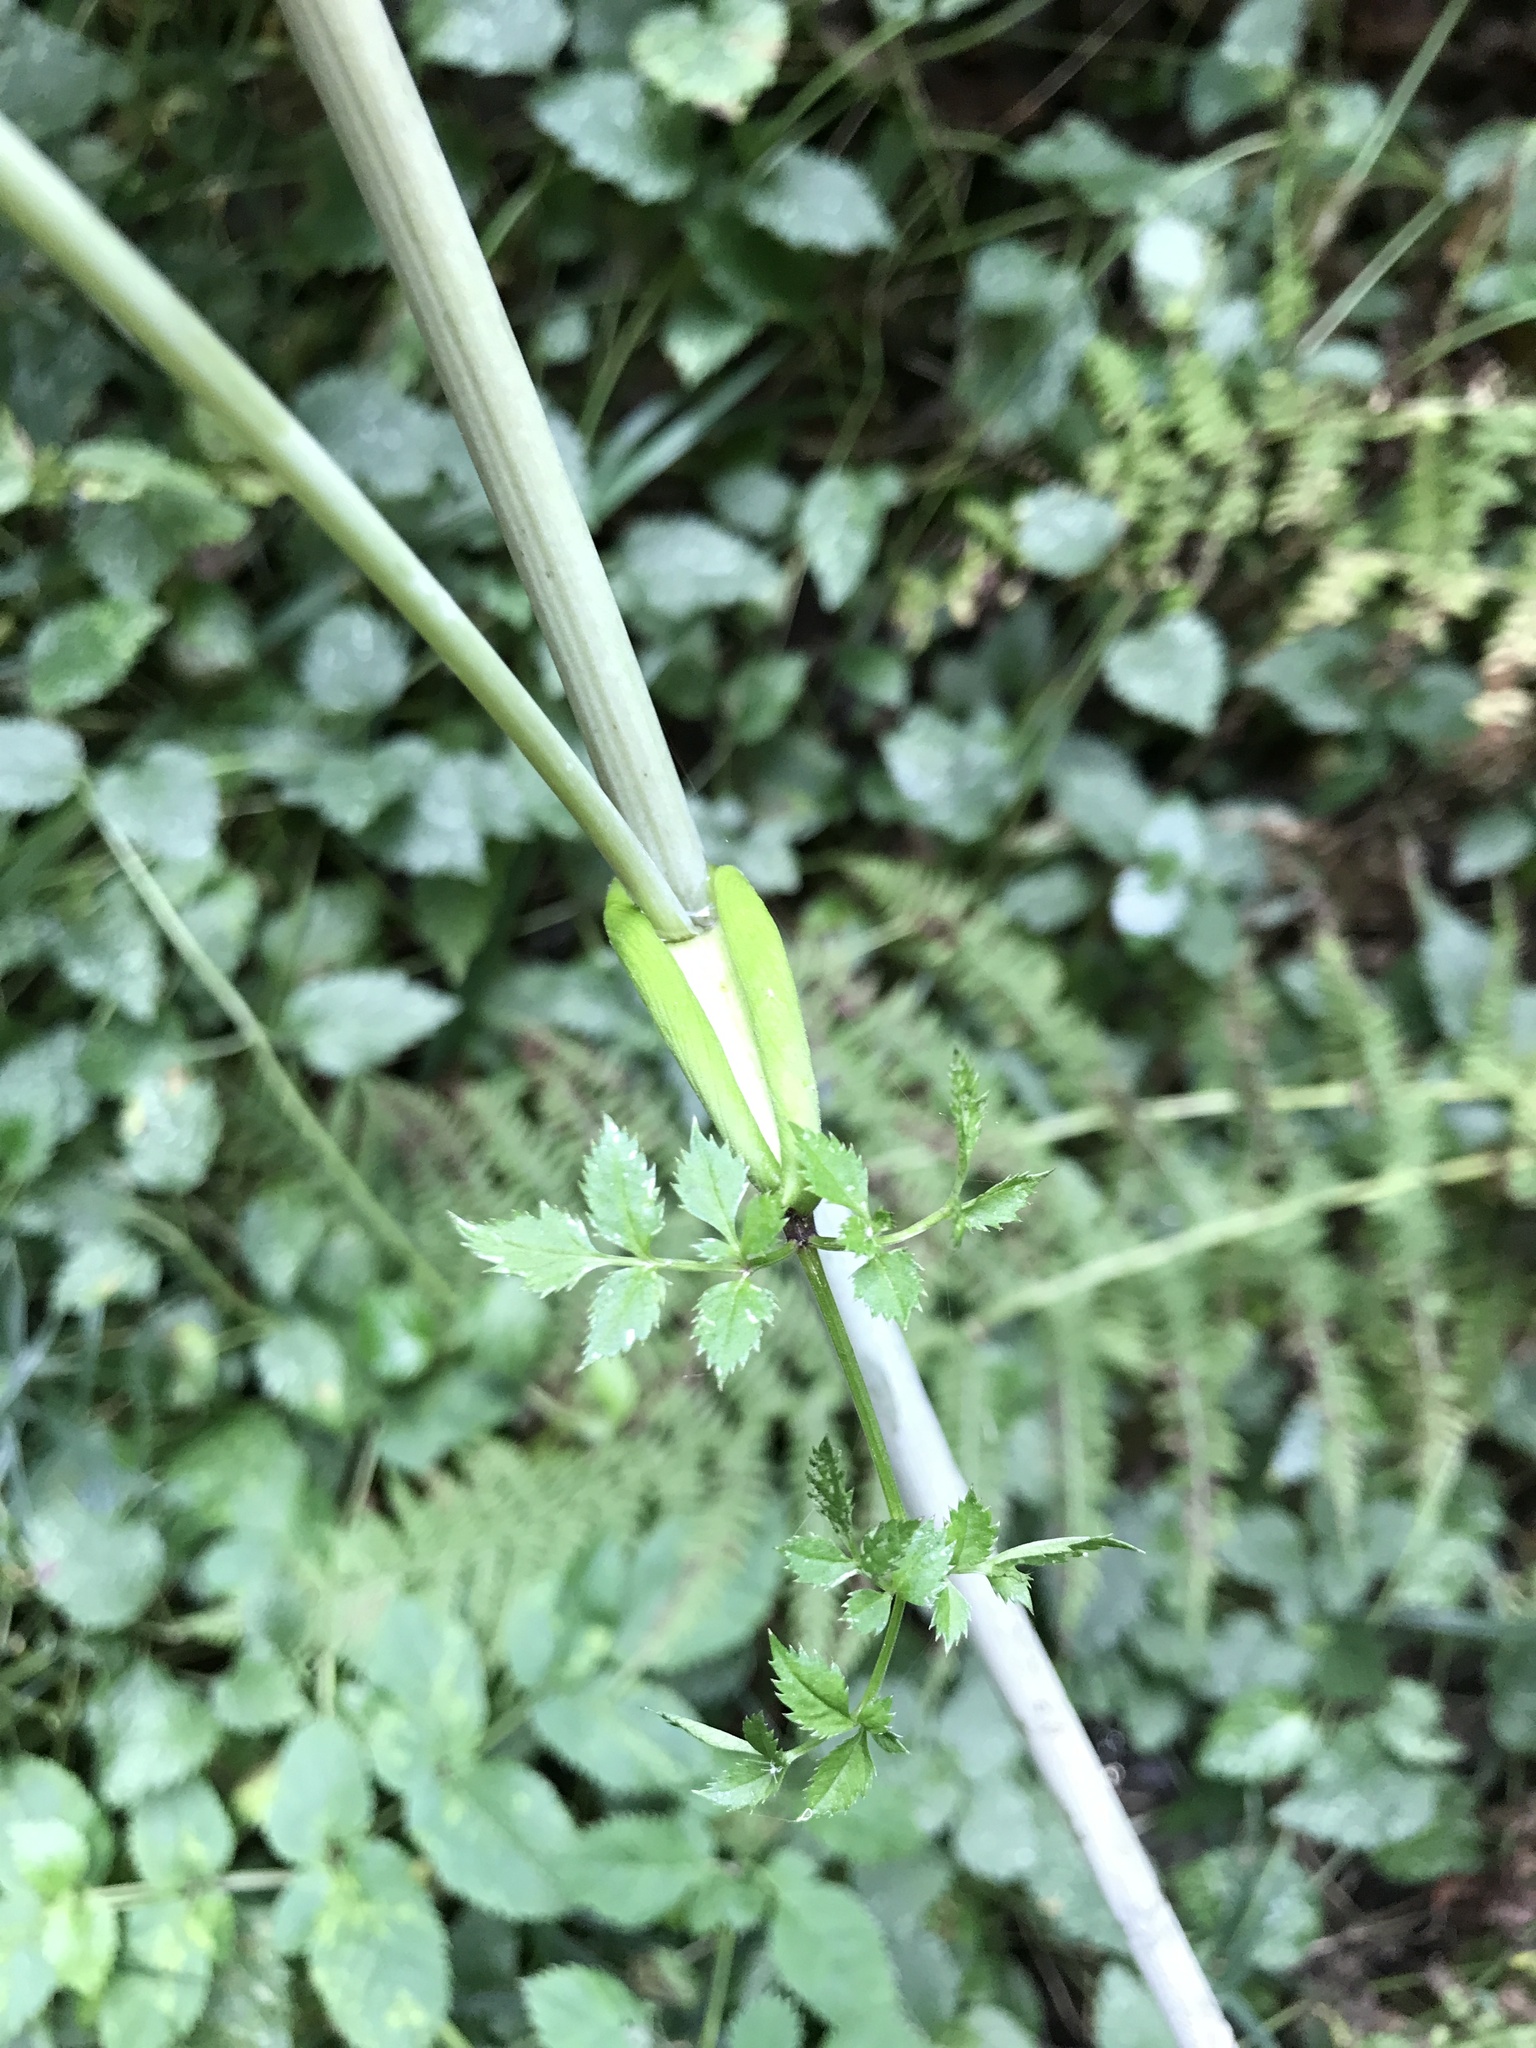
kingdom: Plantae
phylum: Tracheophyta
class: Magnoliopsida
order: Apiales
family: Apiaceae
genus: Angelica
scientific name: Angelica sylvestris
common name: Wild angelica
